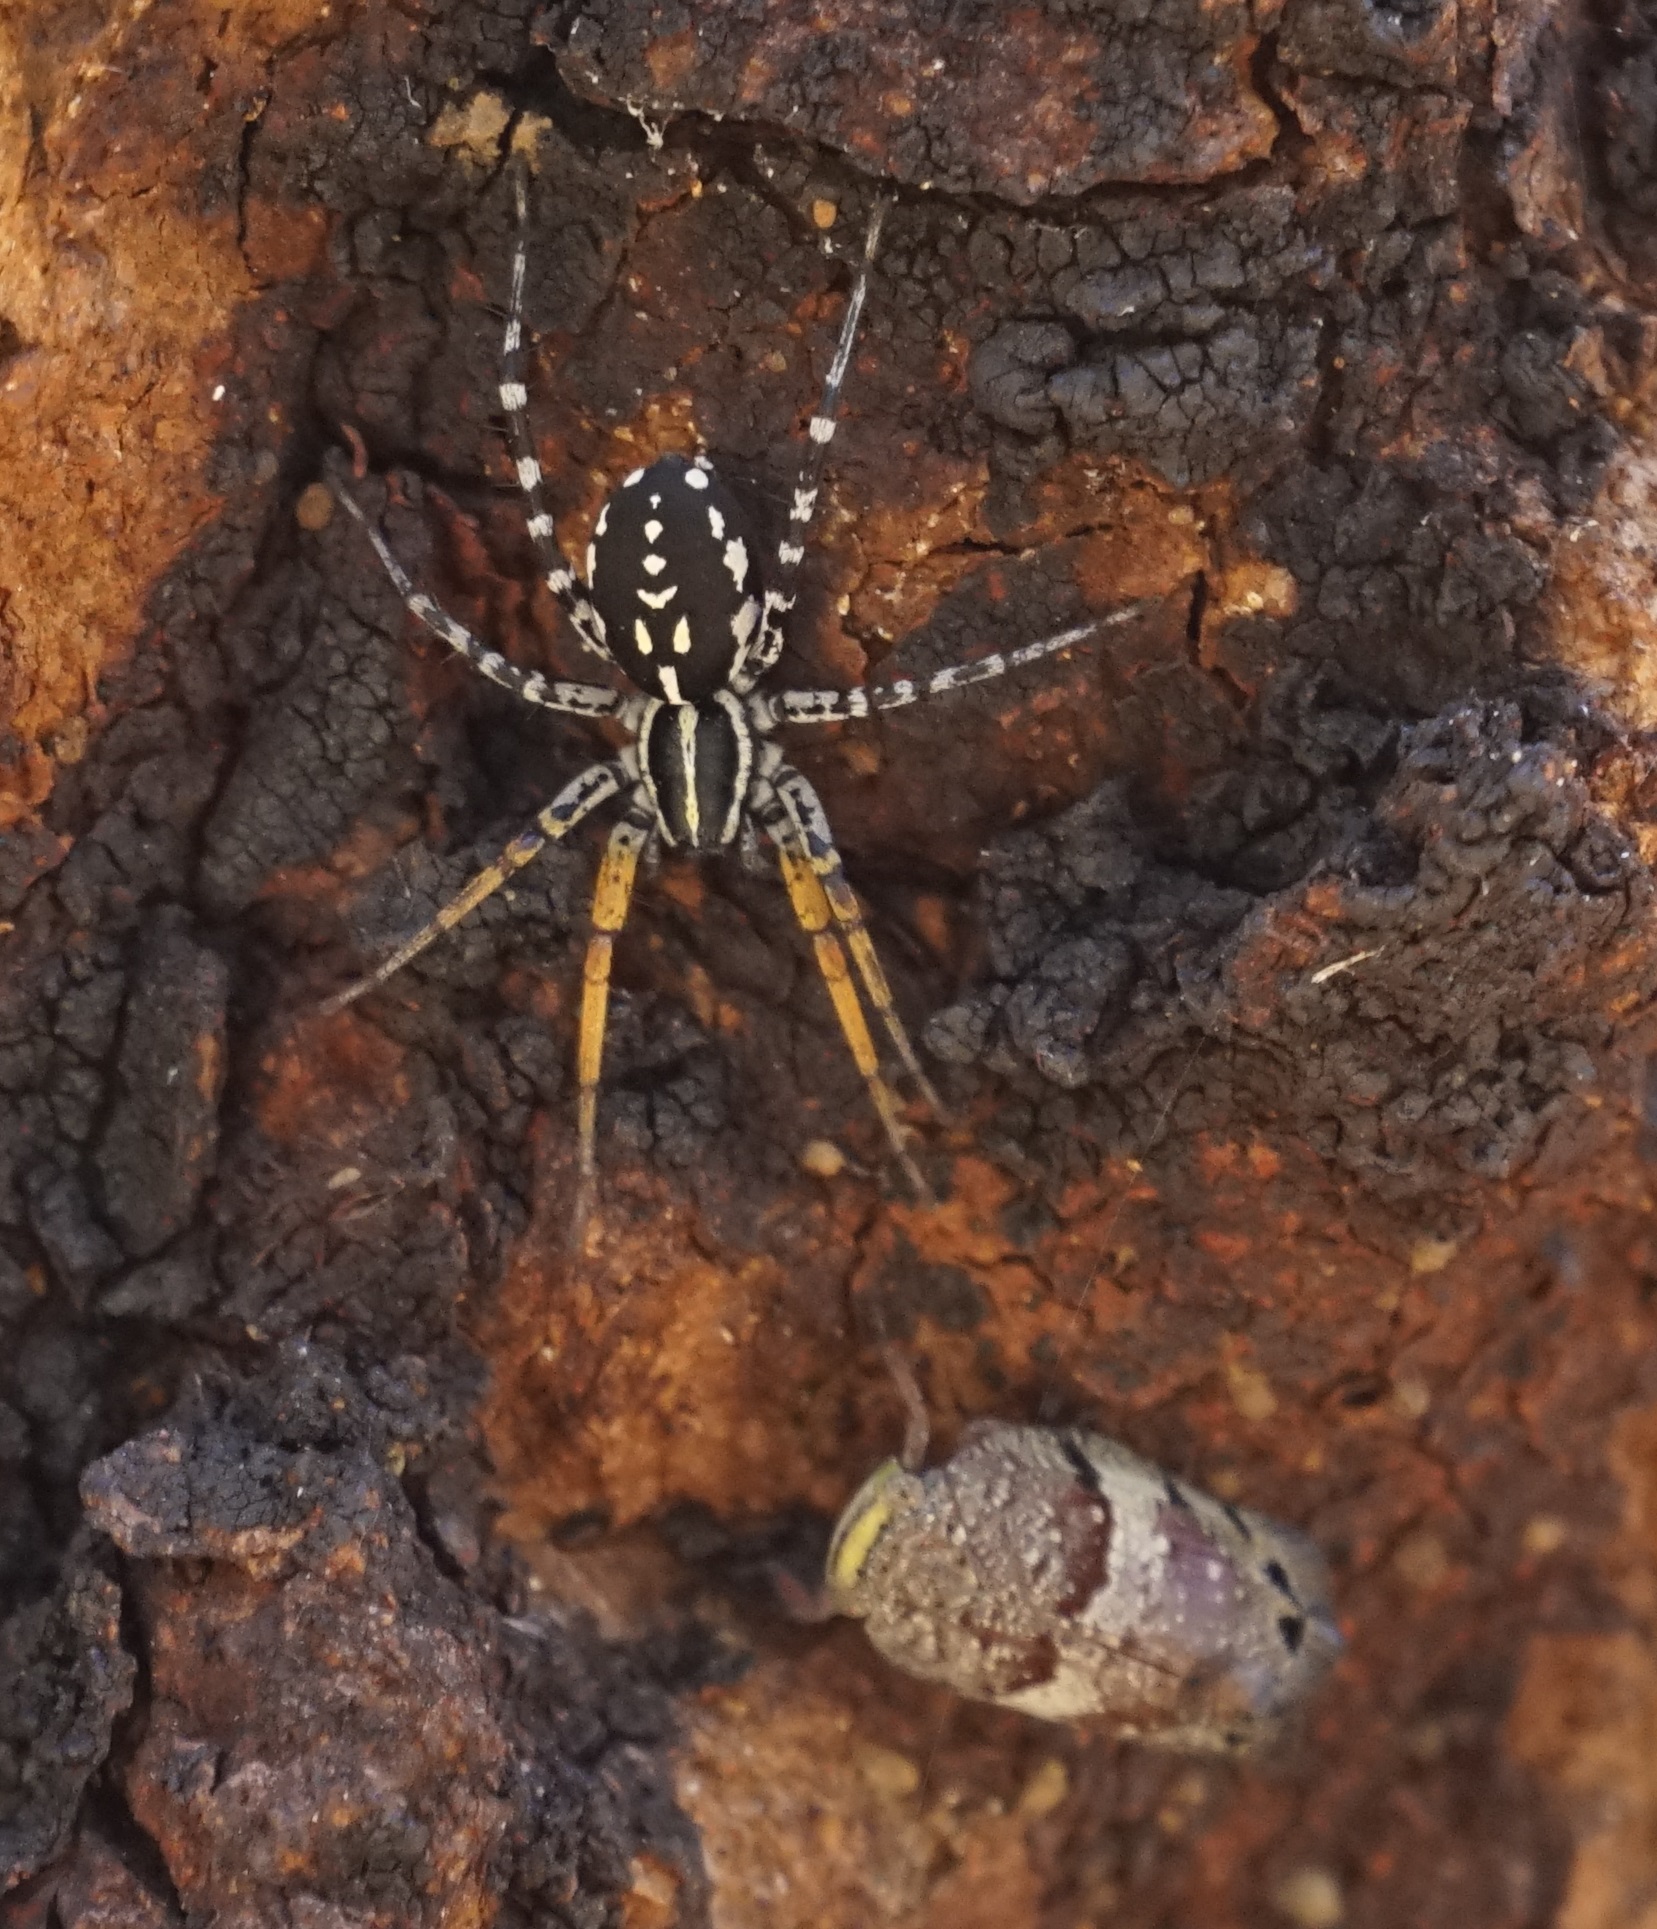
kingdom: Animalia
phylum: Arthropoda
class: Arachnida
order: Araneae
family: Corinnidae
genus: Nyssus
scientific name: Nyssus coloripes
